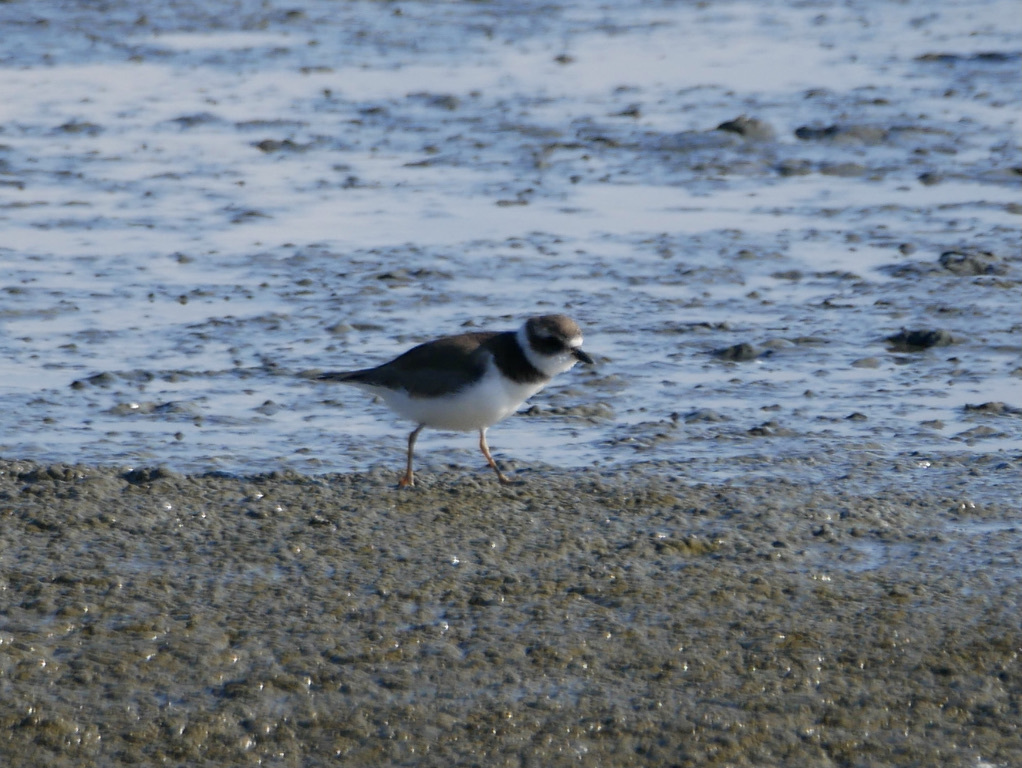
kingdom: Animalia
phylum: Chordata
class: Aves
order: Charadriiformes
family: Charadriidae
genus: Charadrius
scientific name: Charadrius semipalmatus
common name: Semipalmated plover
